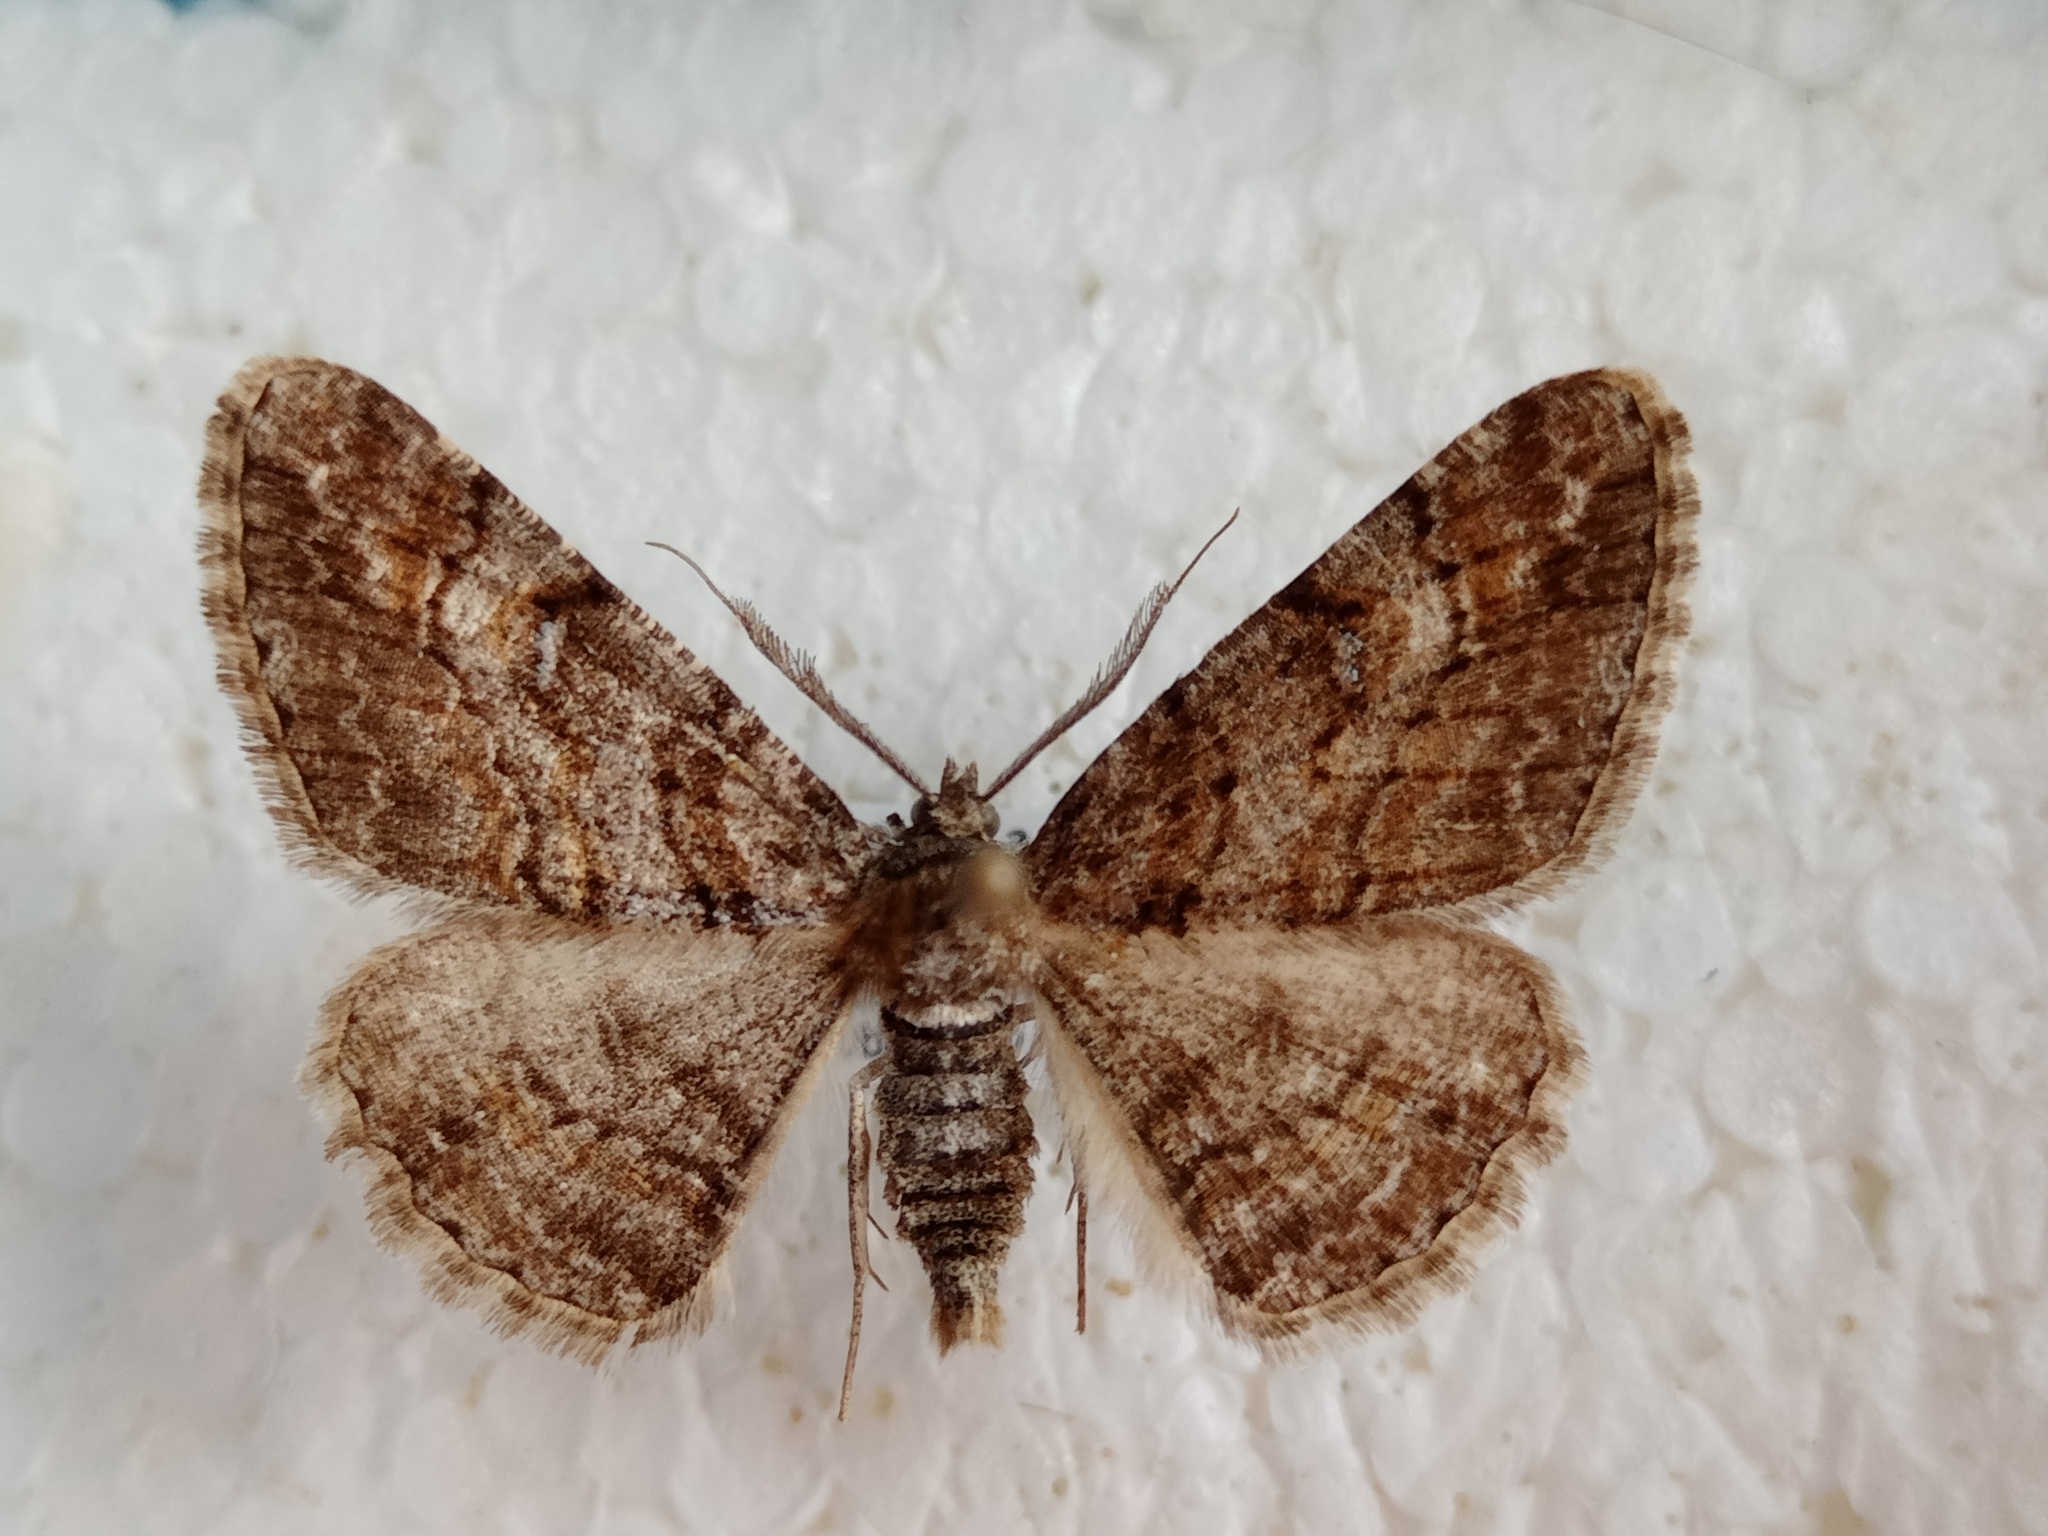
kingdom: Animalia
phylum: Arthropoda
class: Insecta
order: Lepidoptera
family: Geometridae
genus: Cleora
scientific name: Cleora cinctaria
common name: Ringed carpet
